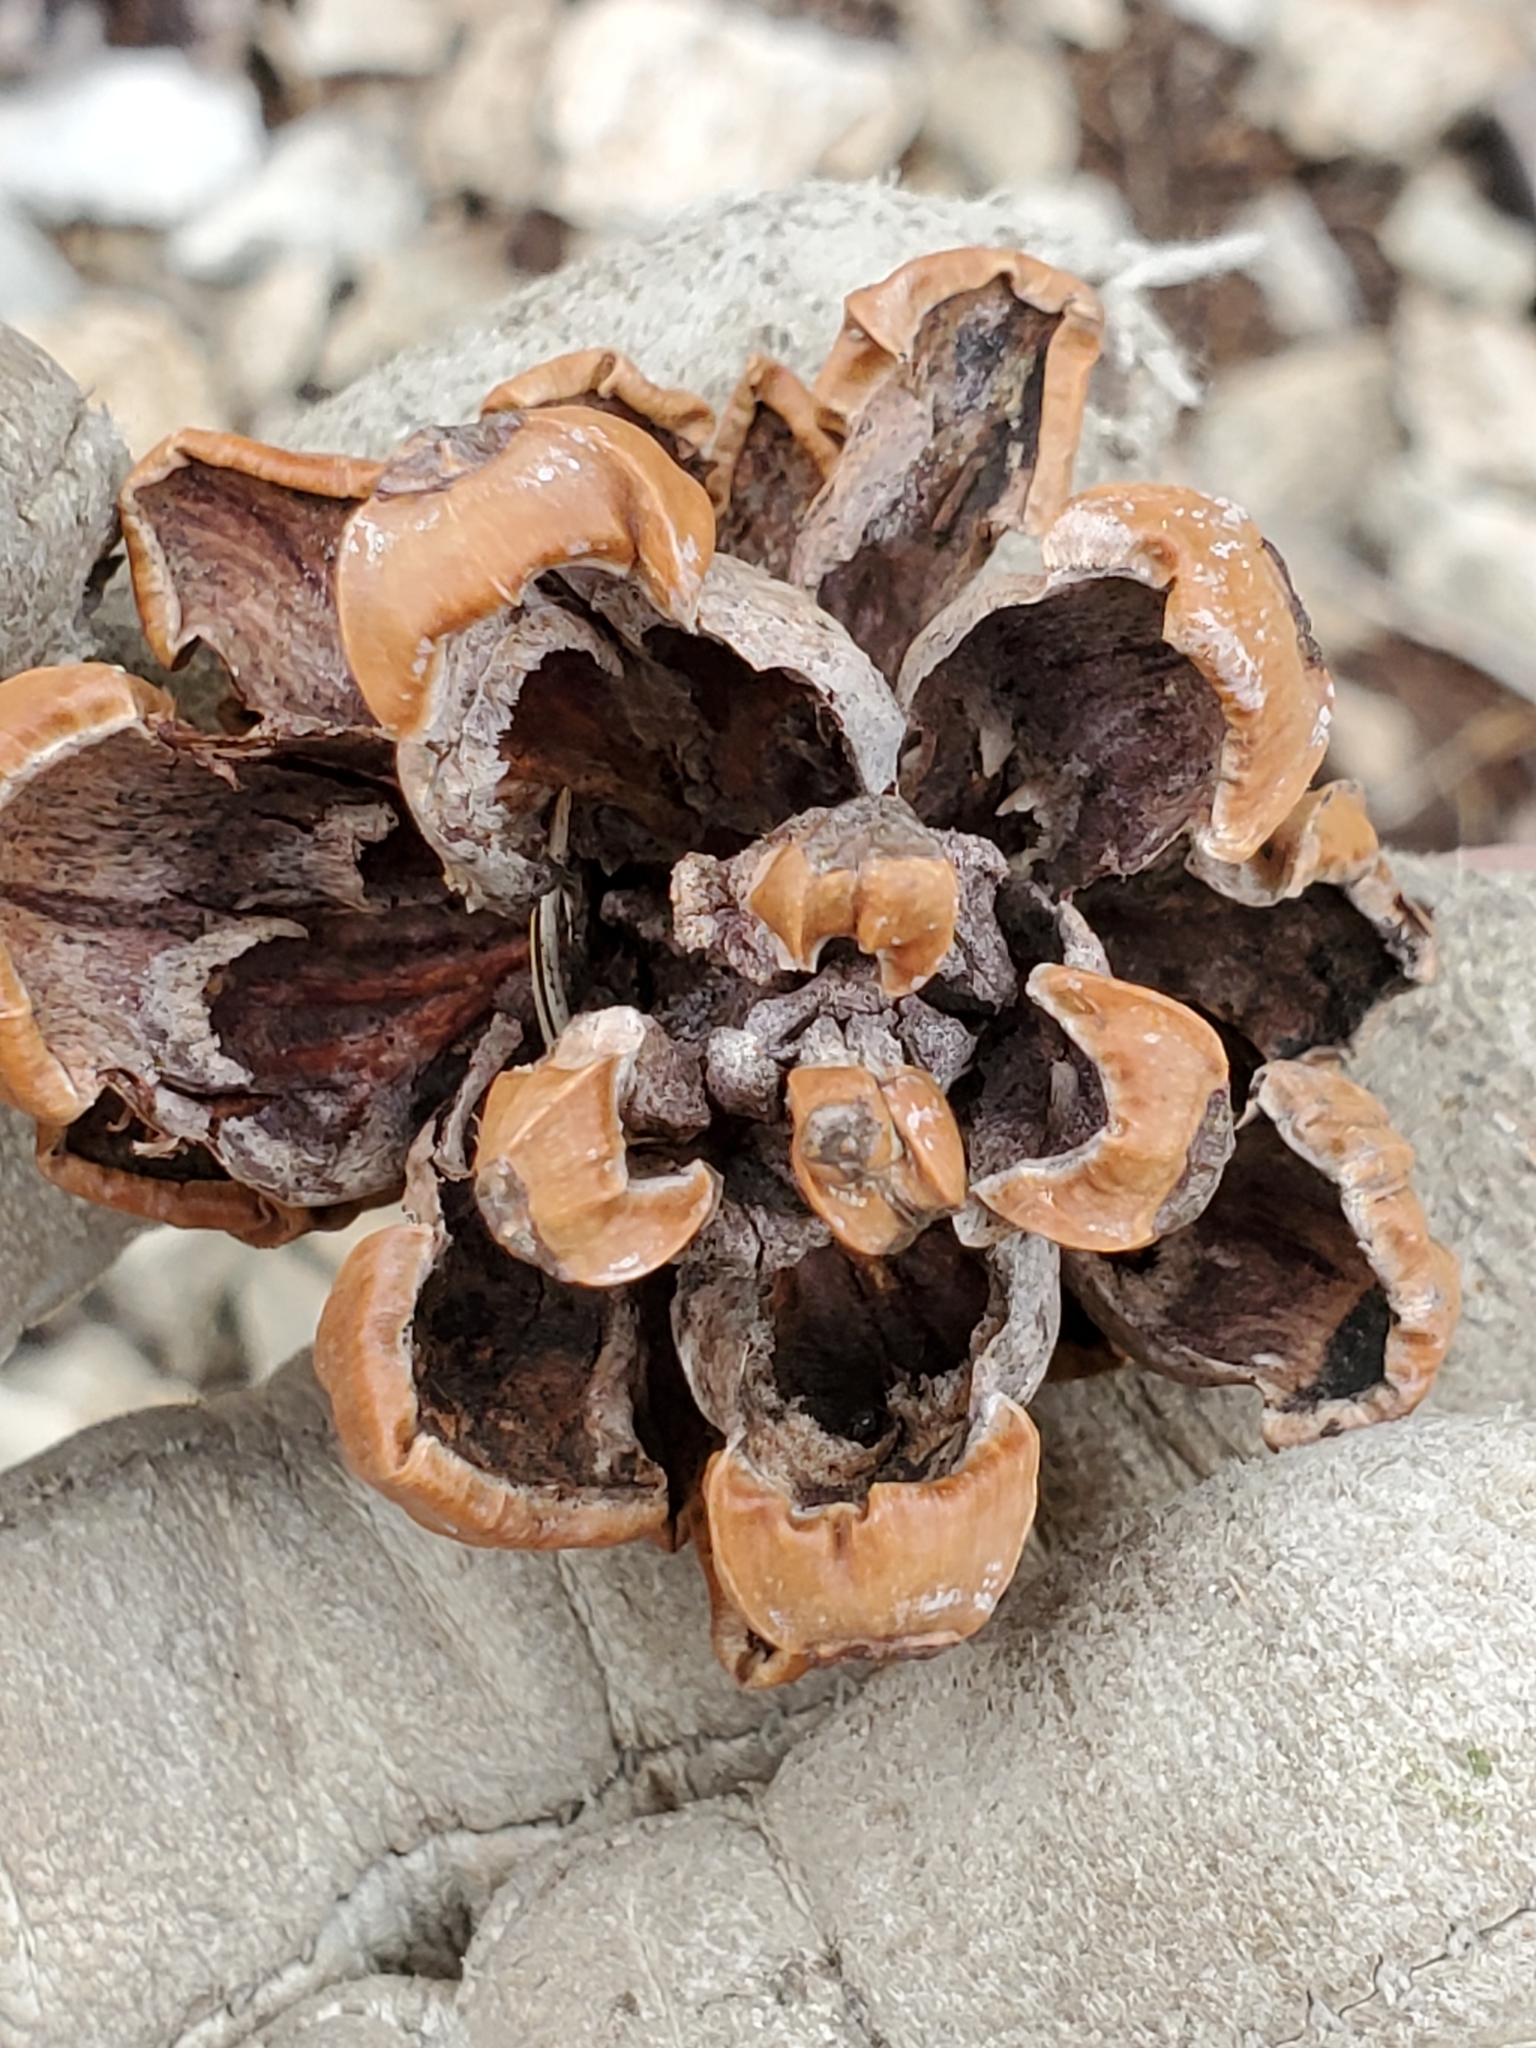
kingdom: Plantae
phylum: Tracheophyta
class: Pinopsida
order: Pinales
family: Pinaceae
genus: Pinus
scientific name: Pinus remota
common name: Nut pine
